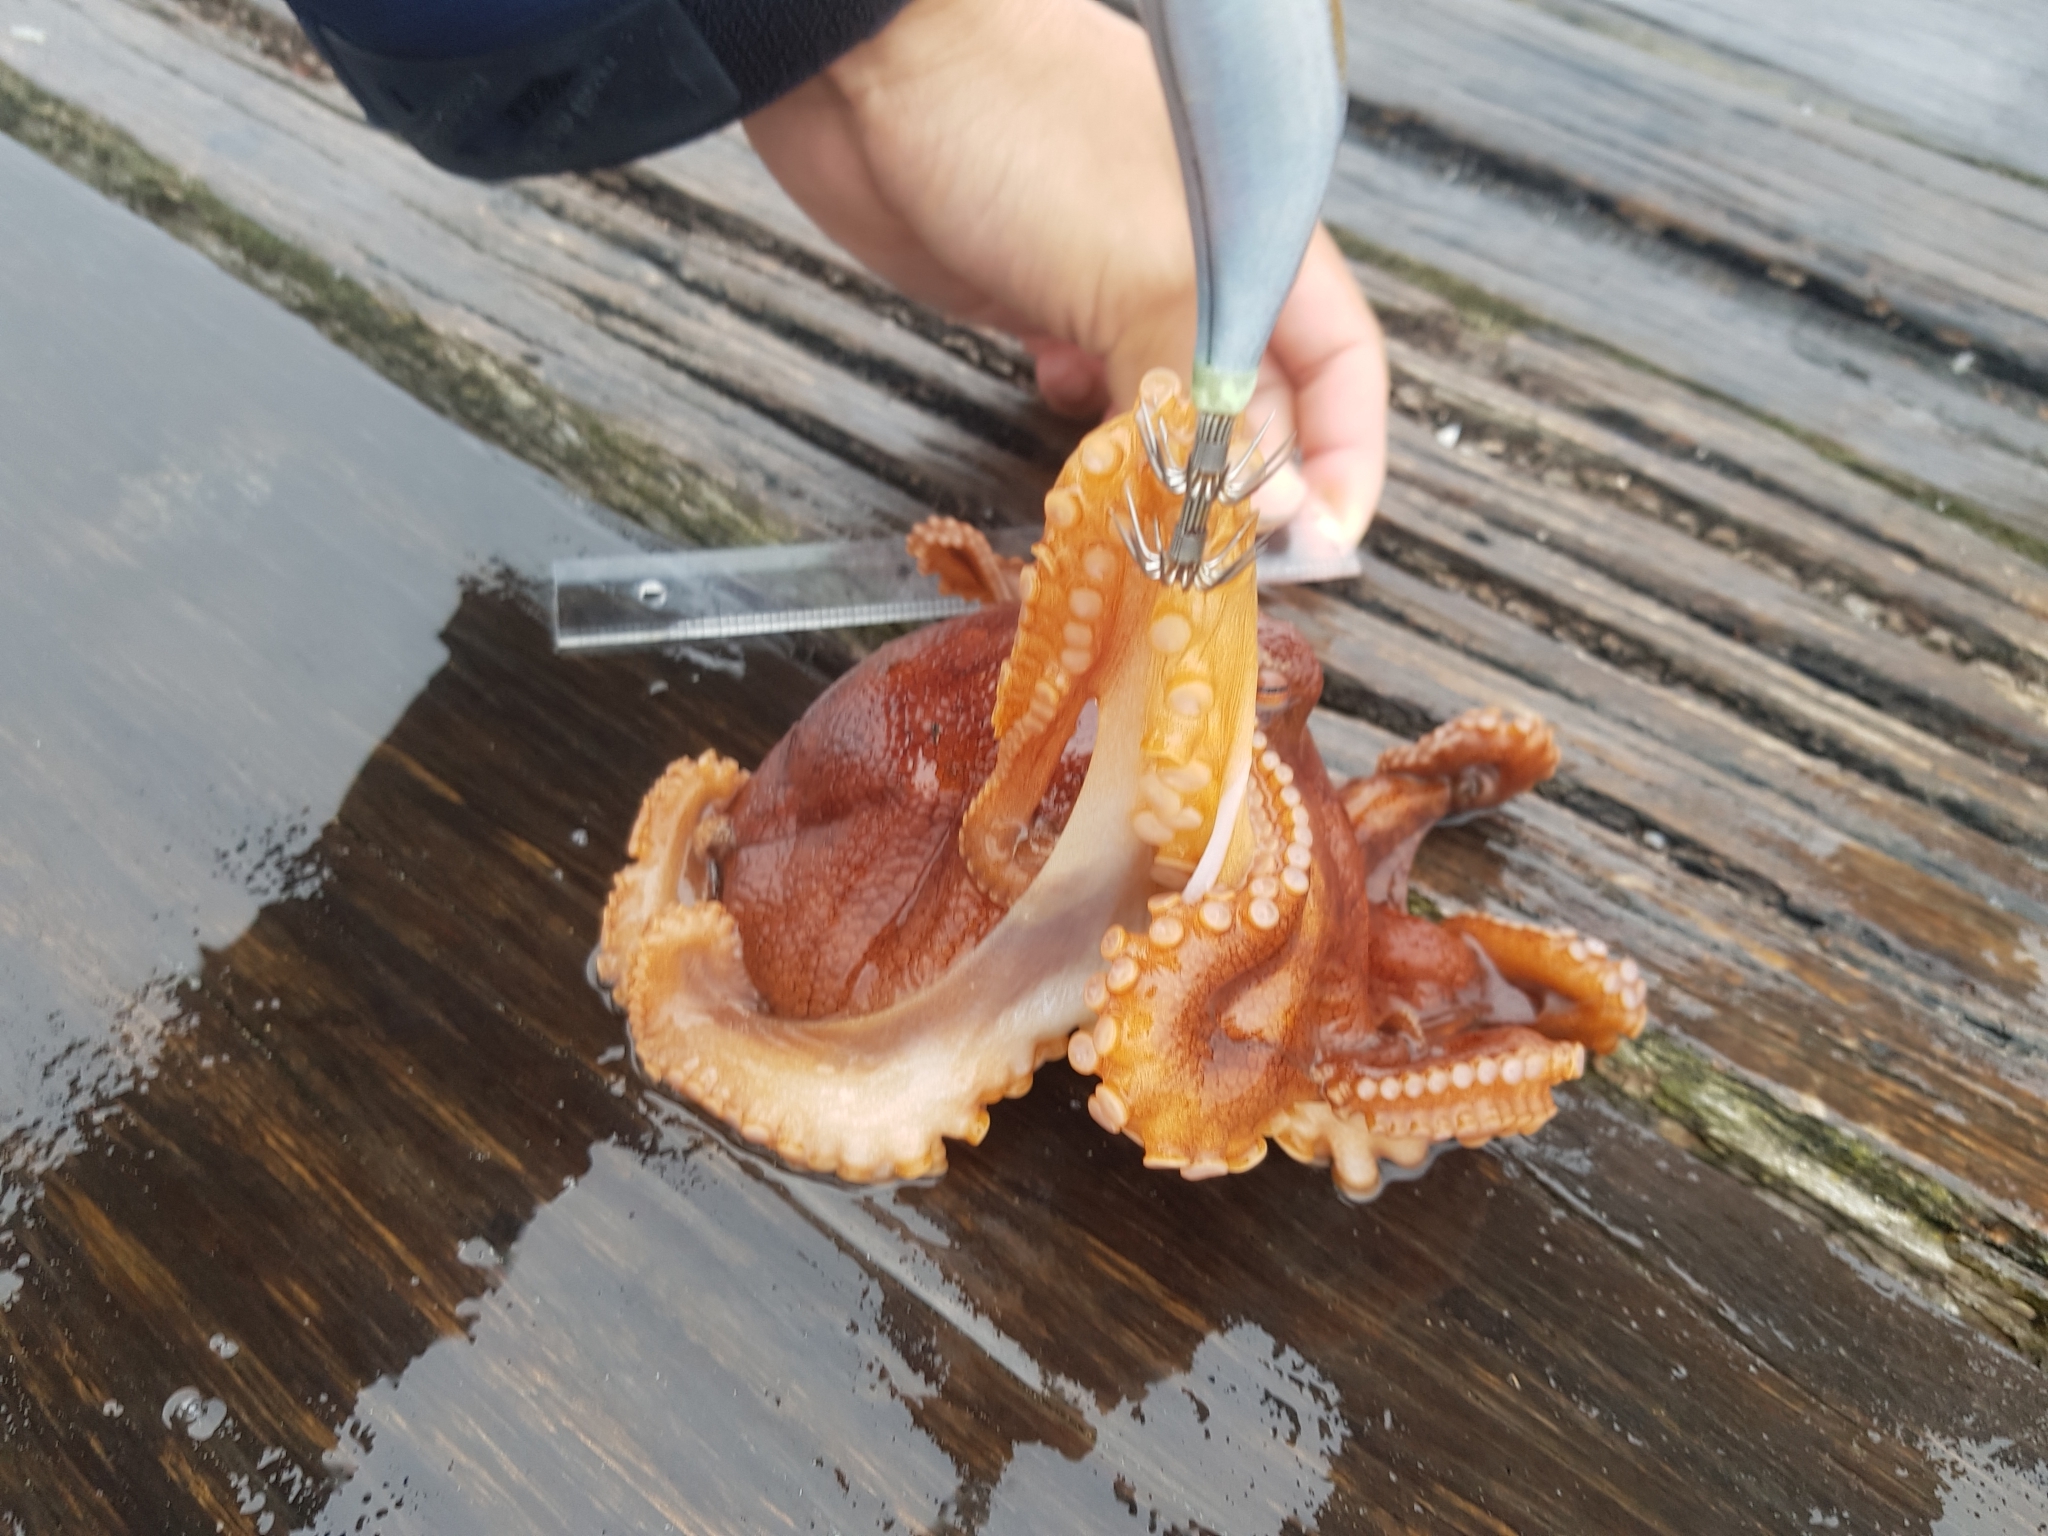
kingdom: Animalia
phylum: Mollusca
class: Cephalopoda
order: Octopoda
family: Octopodidae
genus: Octopus
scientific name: Octopus pallidus
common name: Pale octopus
